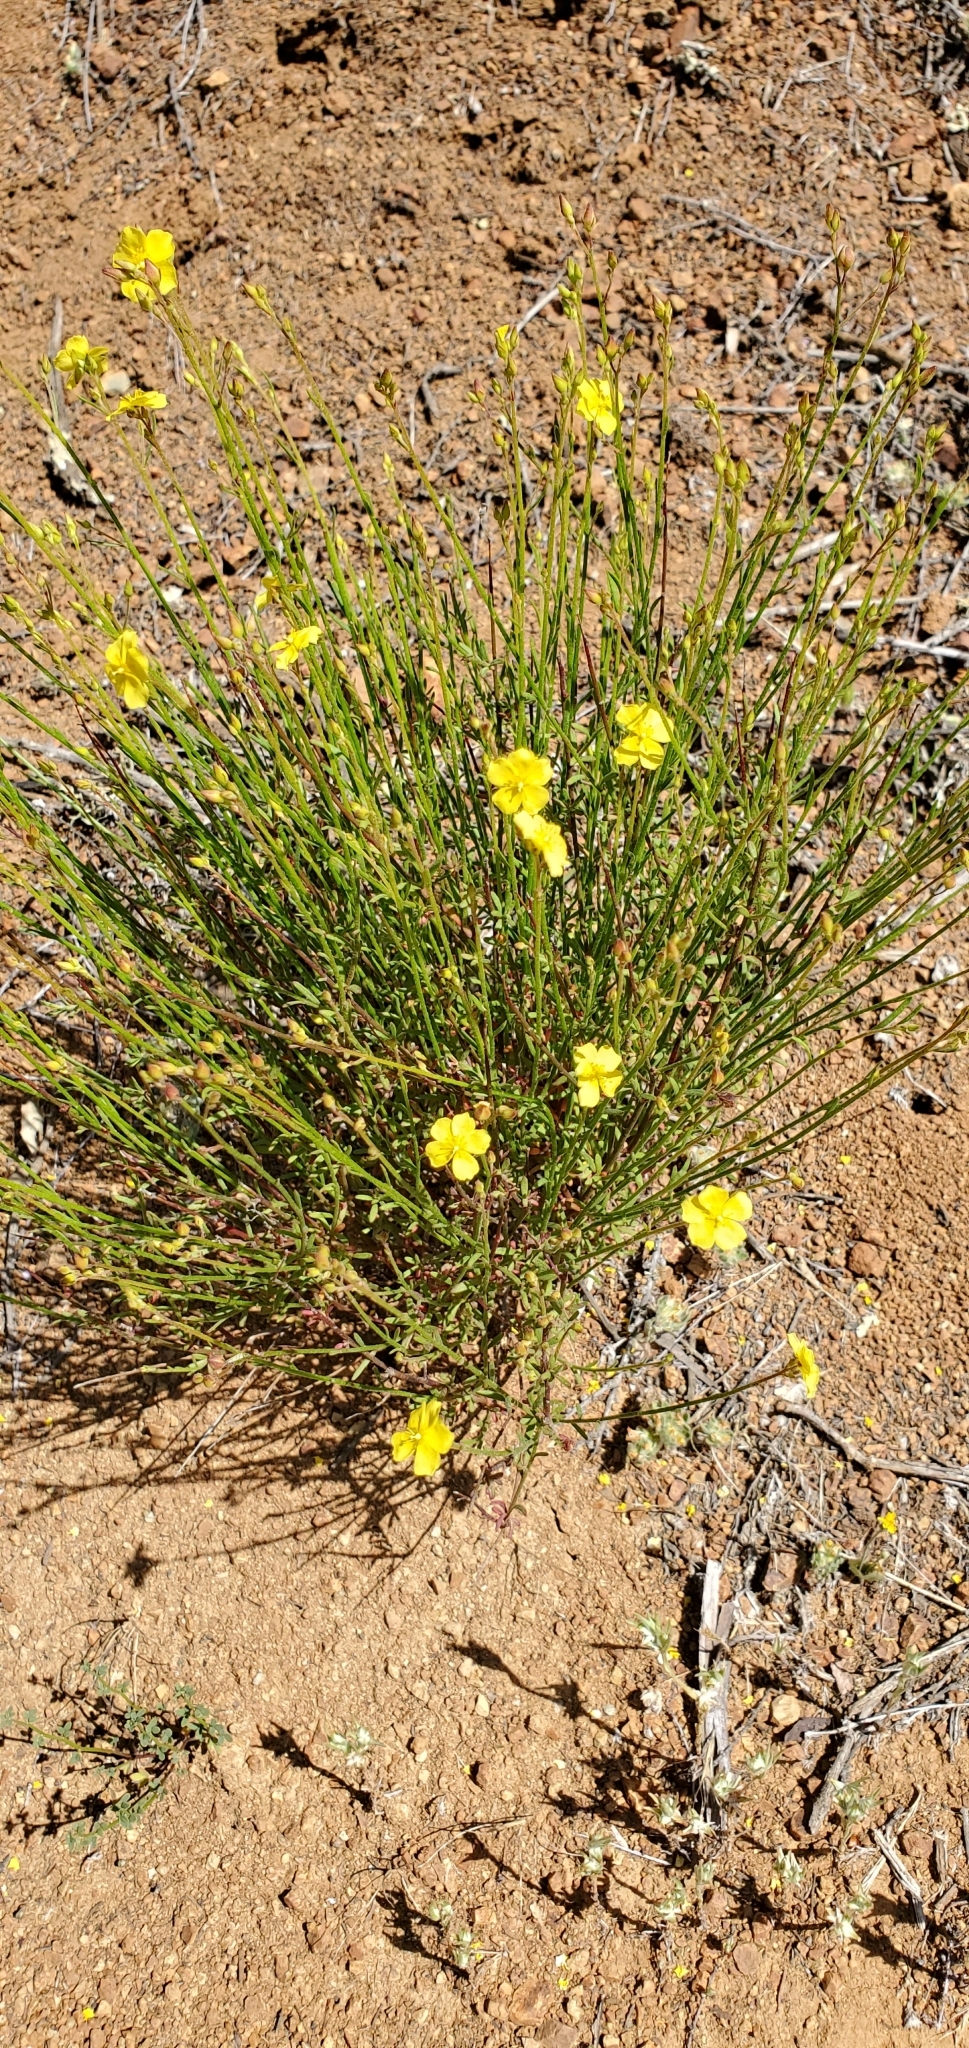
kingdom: Plantae
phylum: Tracheophyta
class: Magnoliopsida
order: Malvales
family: Cistaceae
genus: Crocanthemum
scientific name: Crocanthemum scoparium
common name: Broom-rose
